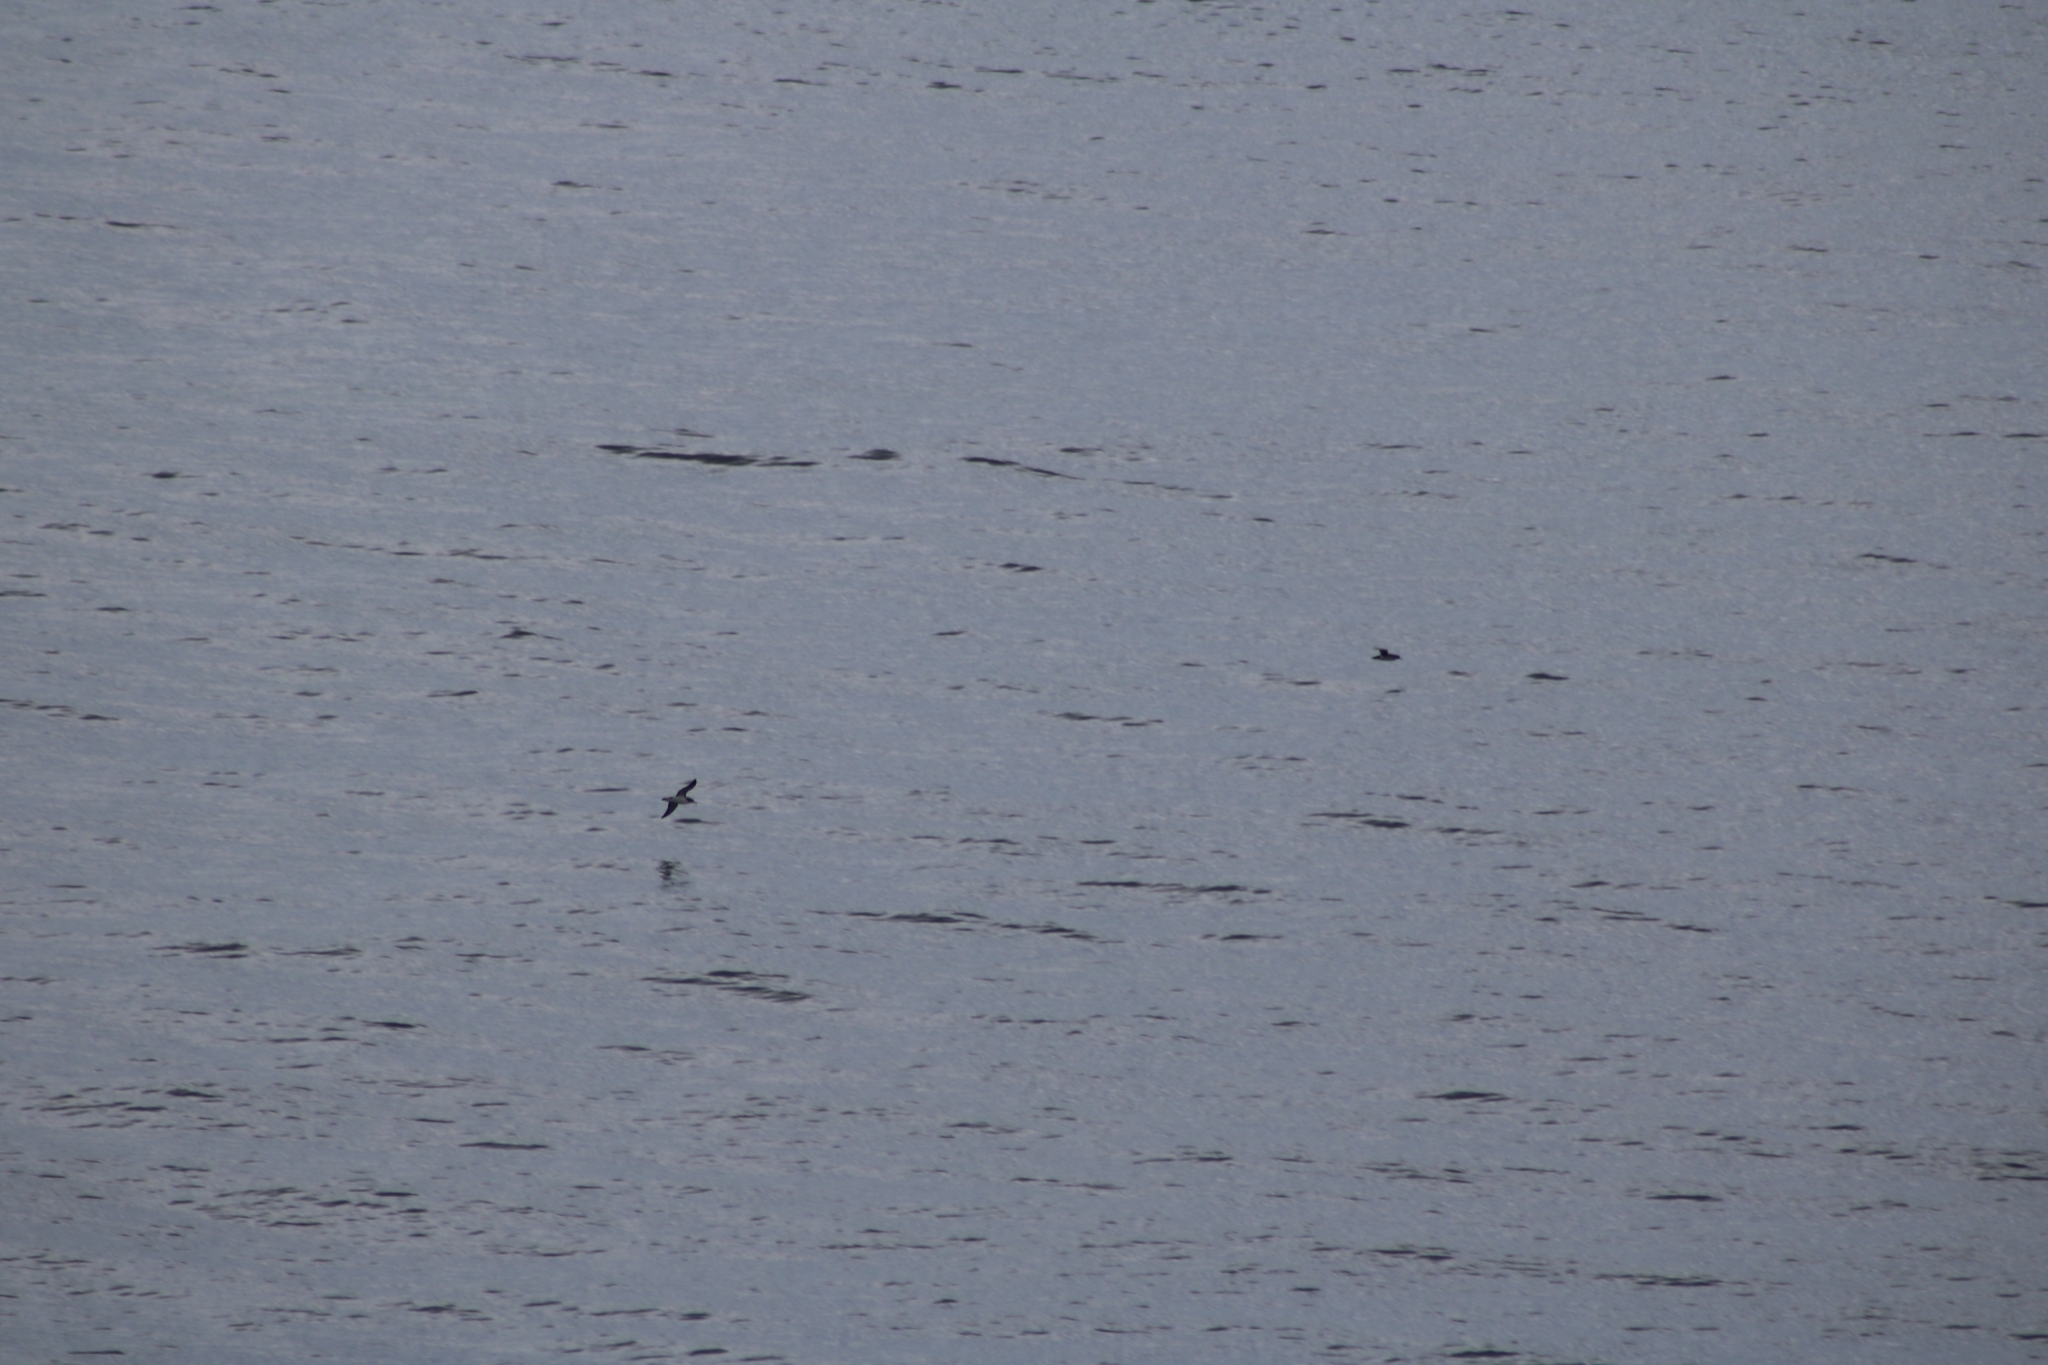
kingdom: Animalia
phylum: Chordata
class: Aves
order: Procellariiformes
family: Procellariidae
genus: Puffinus
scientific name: Puffinus puffinus
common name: Manx shearwater
